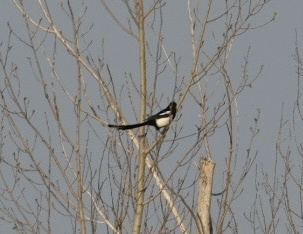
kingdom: Animalia
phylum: Chordata
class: Aves
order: Passeriformes
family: Corvidae
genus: Pica
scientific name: Pica pica
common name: Eurasian magpie
